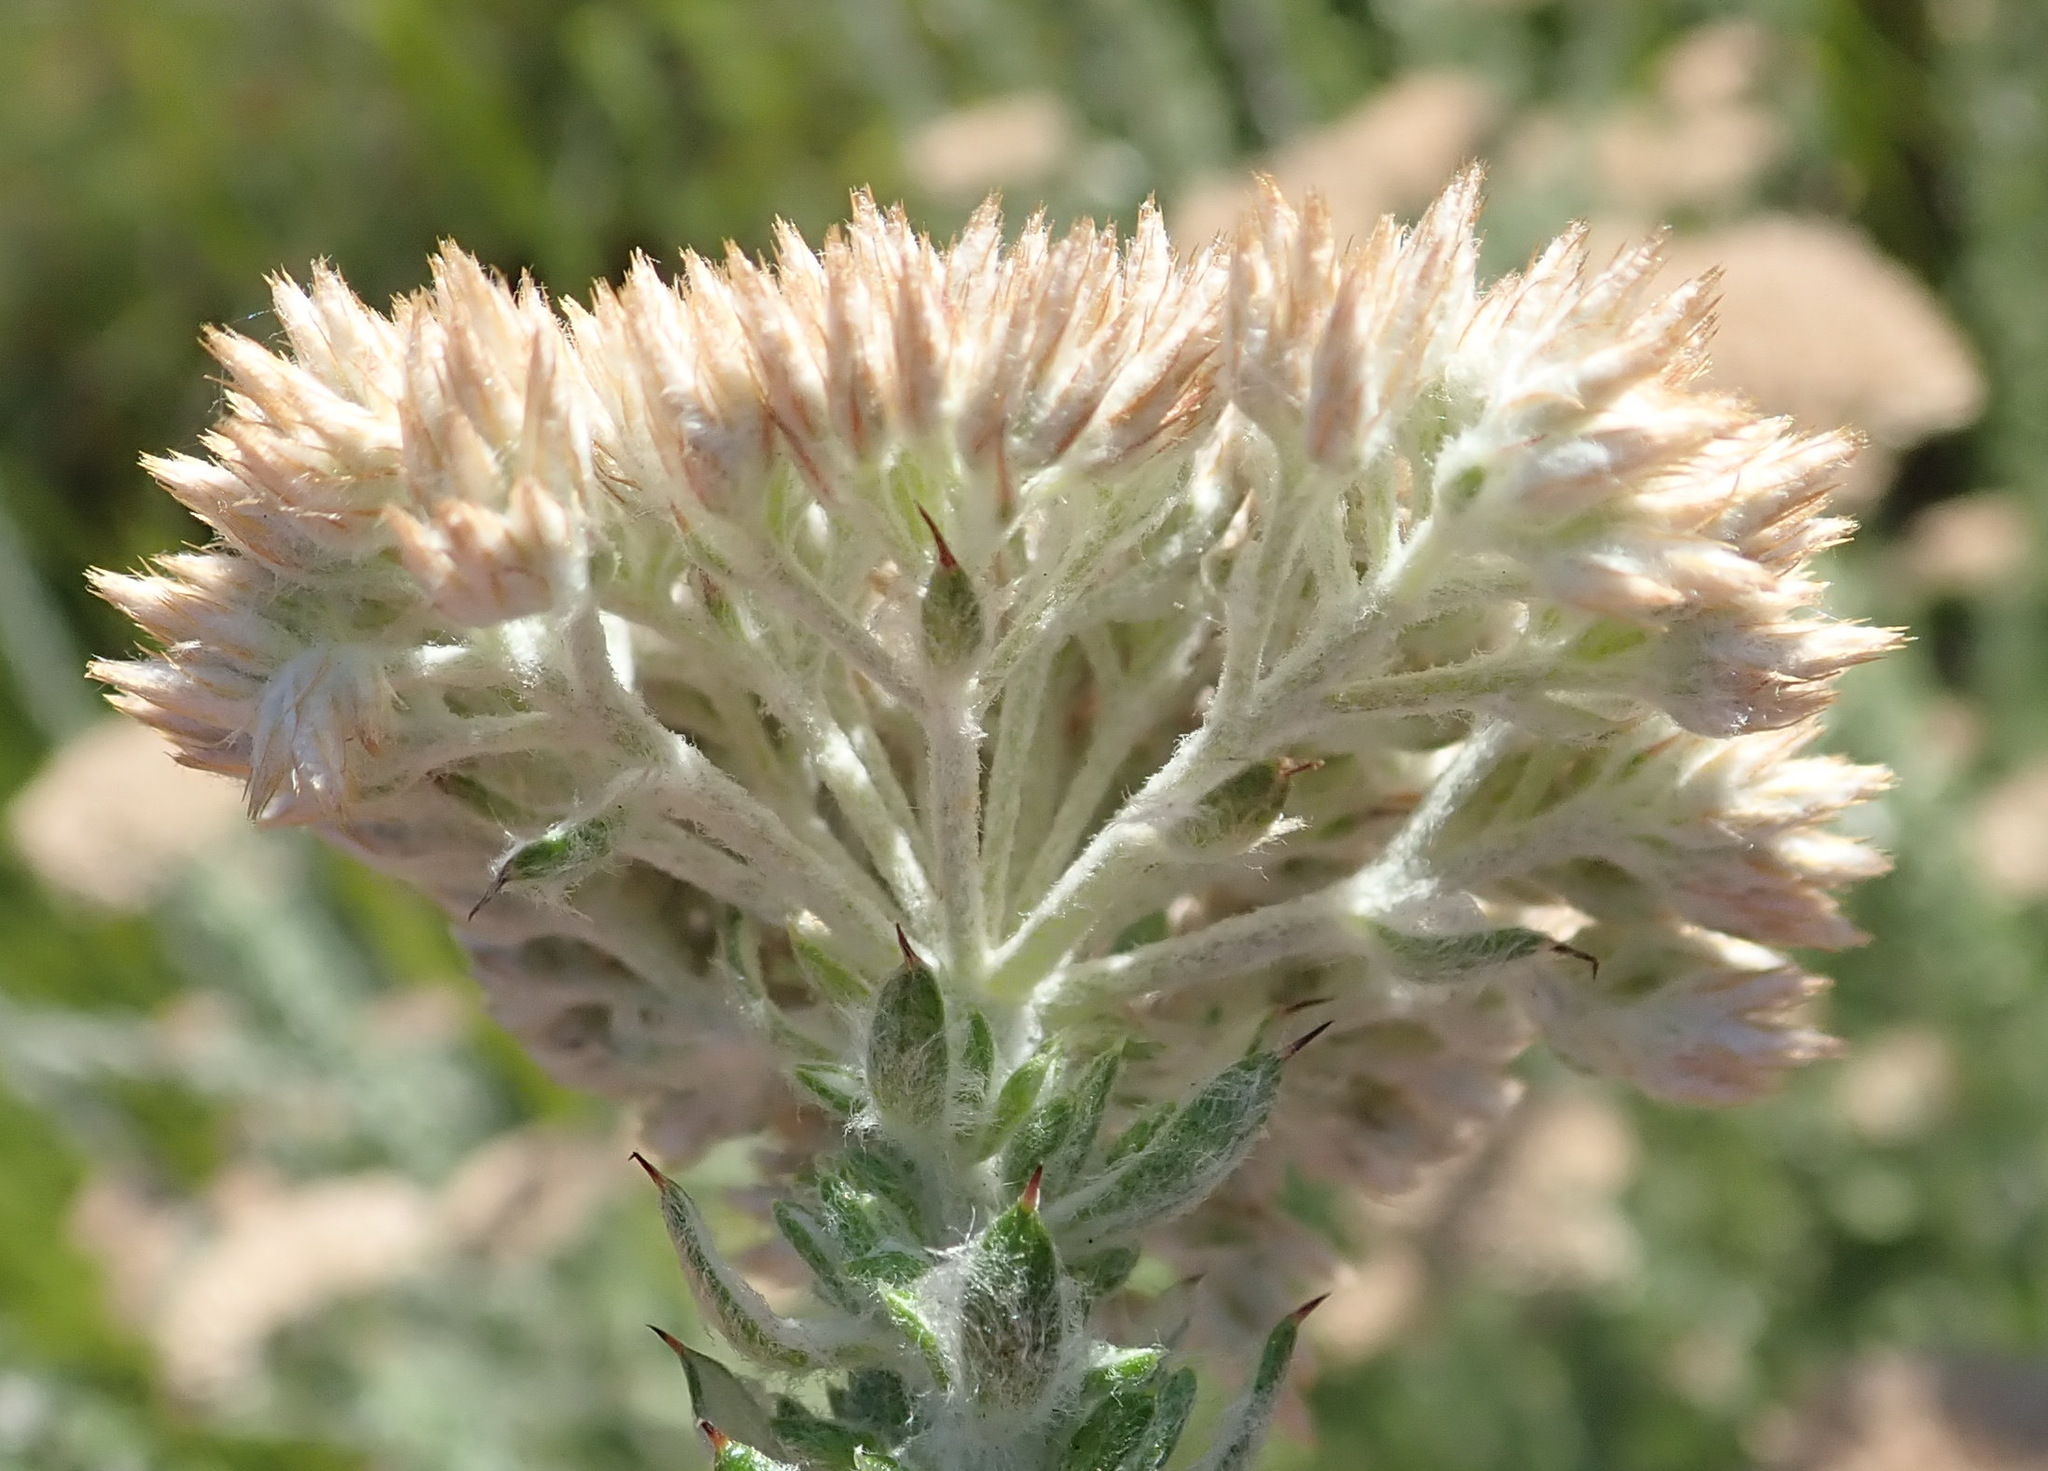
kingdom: Plantae
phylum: Tracheophyta
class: Magnoliopsida
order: Asterales
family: Asteraceae
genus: Metalasia
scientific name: Metalasia pungens
